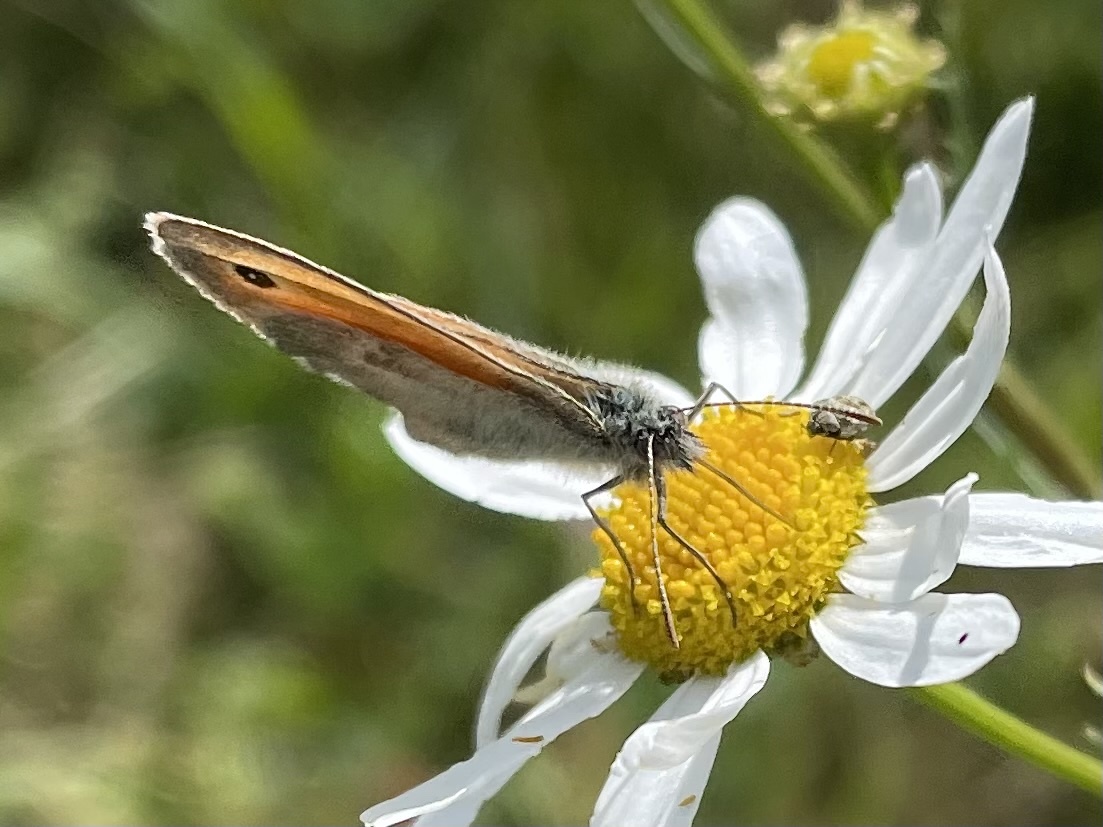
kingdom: Animalia
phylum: Arthropoda
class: Insecta
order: Lepidoptera
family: Nymphalidae
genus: Coenonympha
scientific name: Coenonympha pamphilus
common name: Small heath
